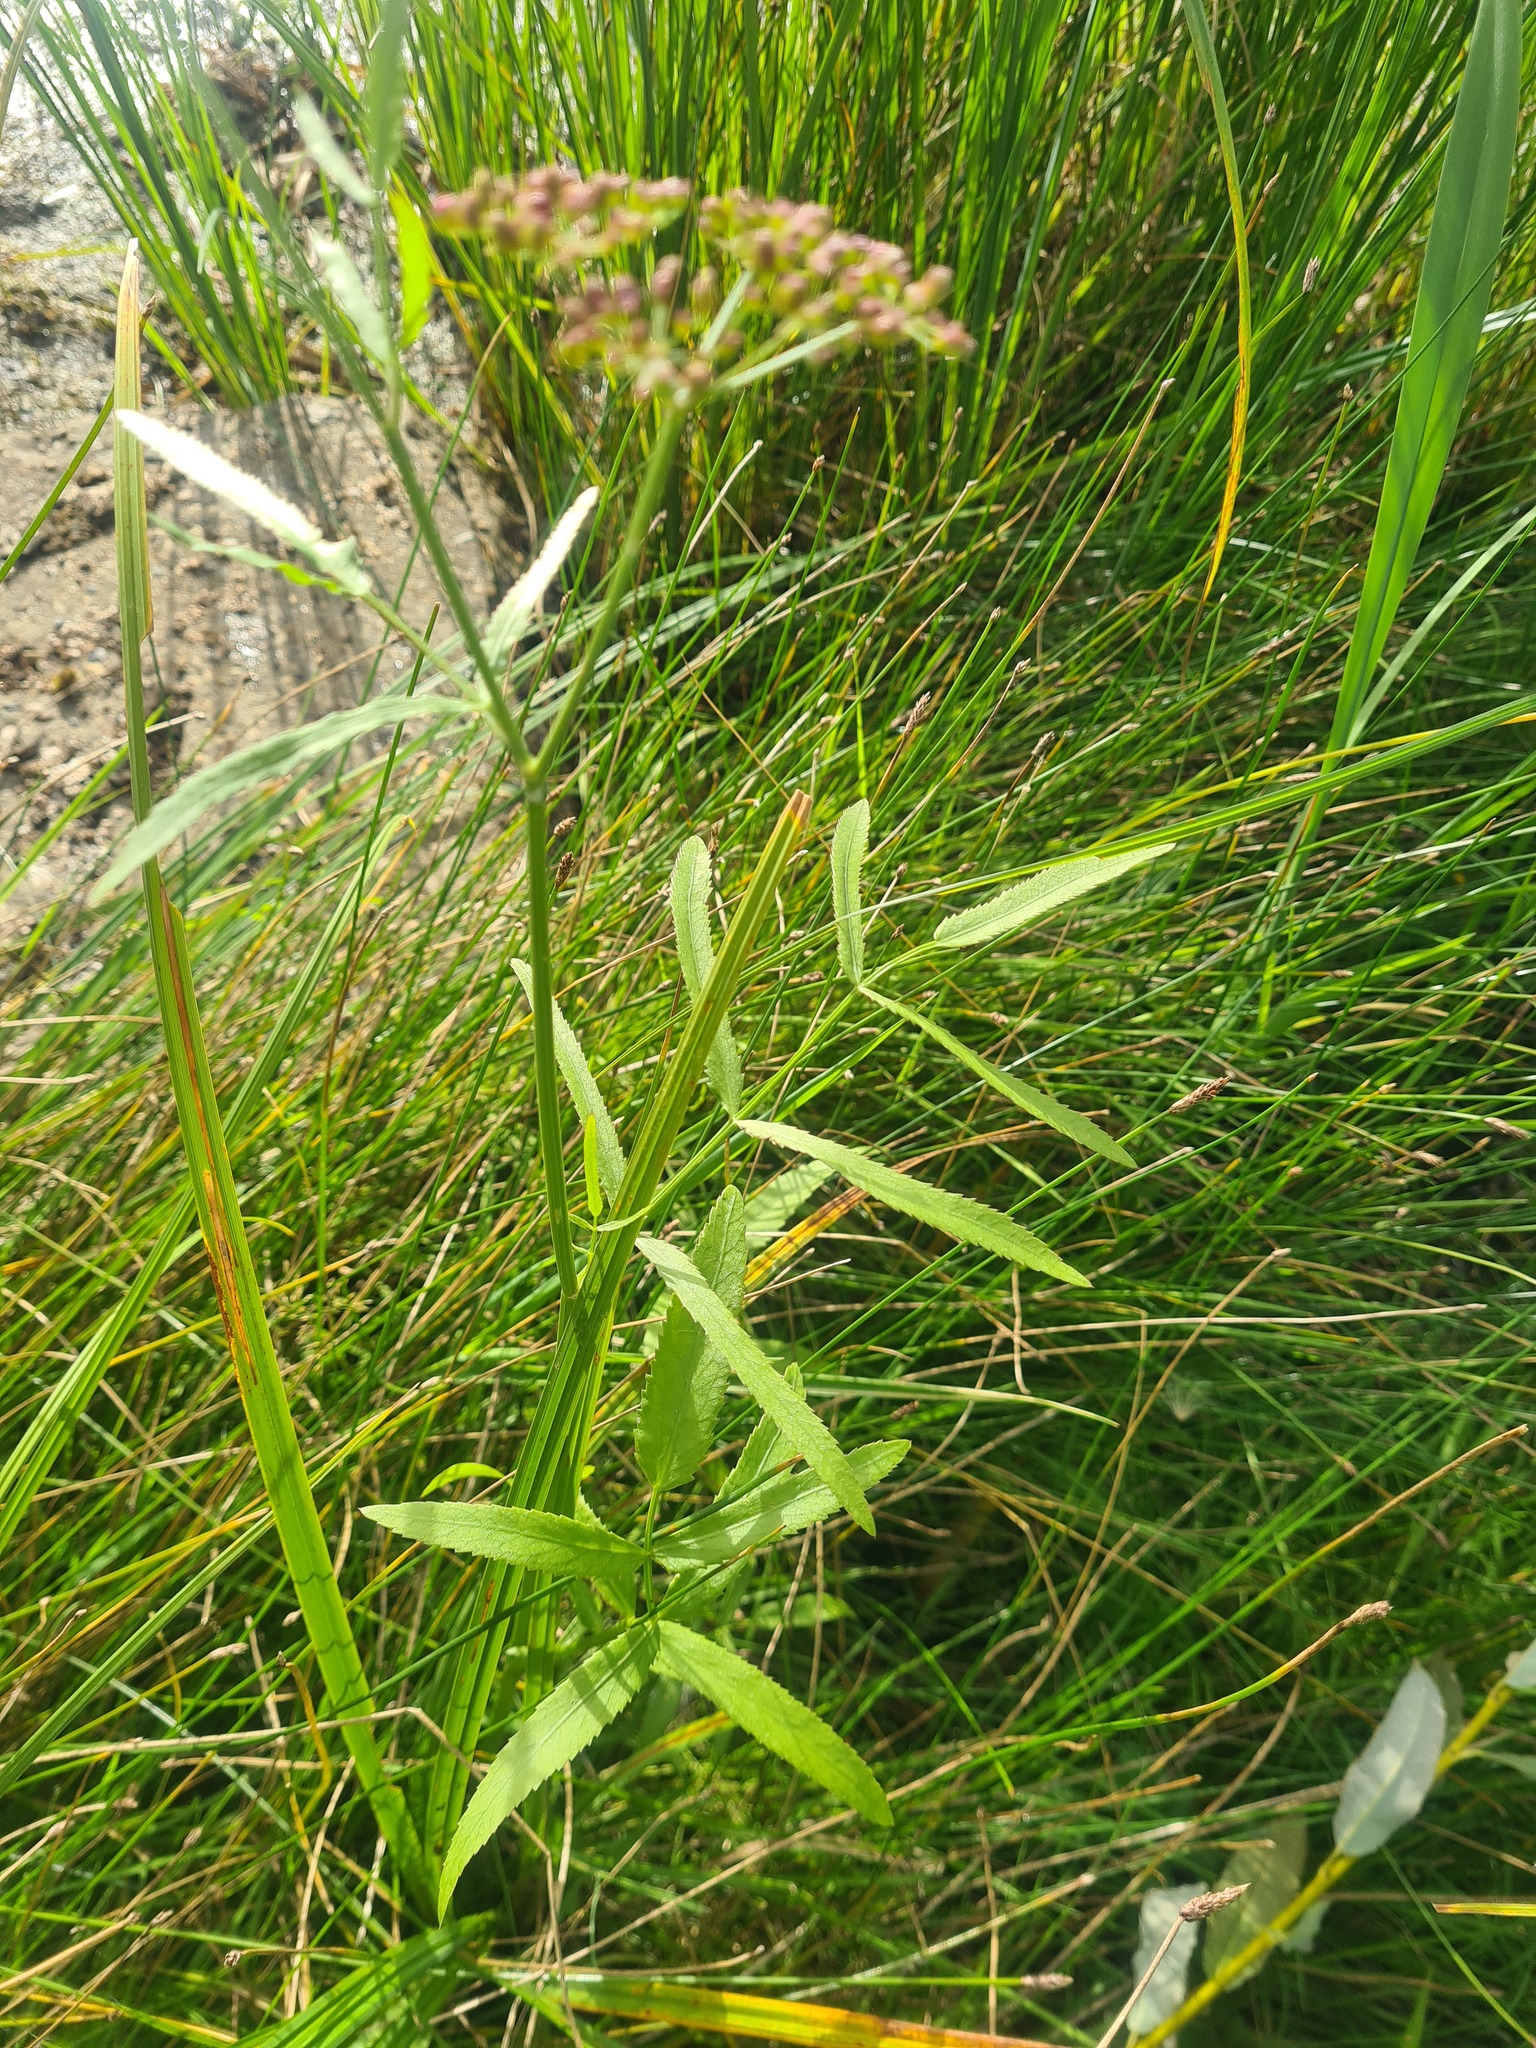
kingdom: Plantae
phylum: Tracheophyta
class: Magnoliopsida
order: Apiales
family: Apiaceae
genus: Sium
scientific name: Sium latifolium
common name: Greater water-parsnip
